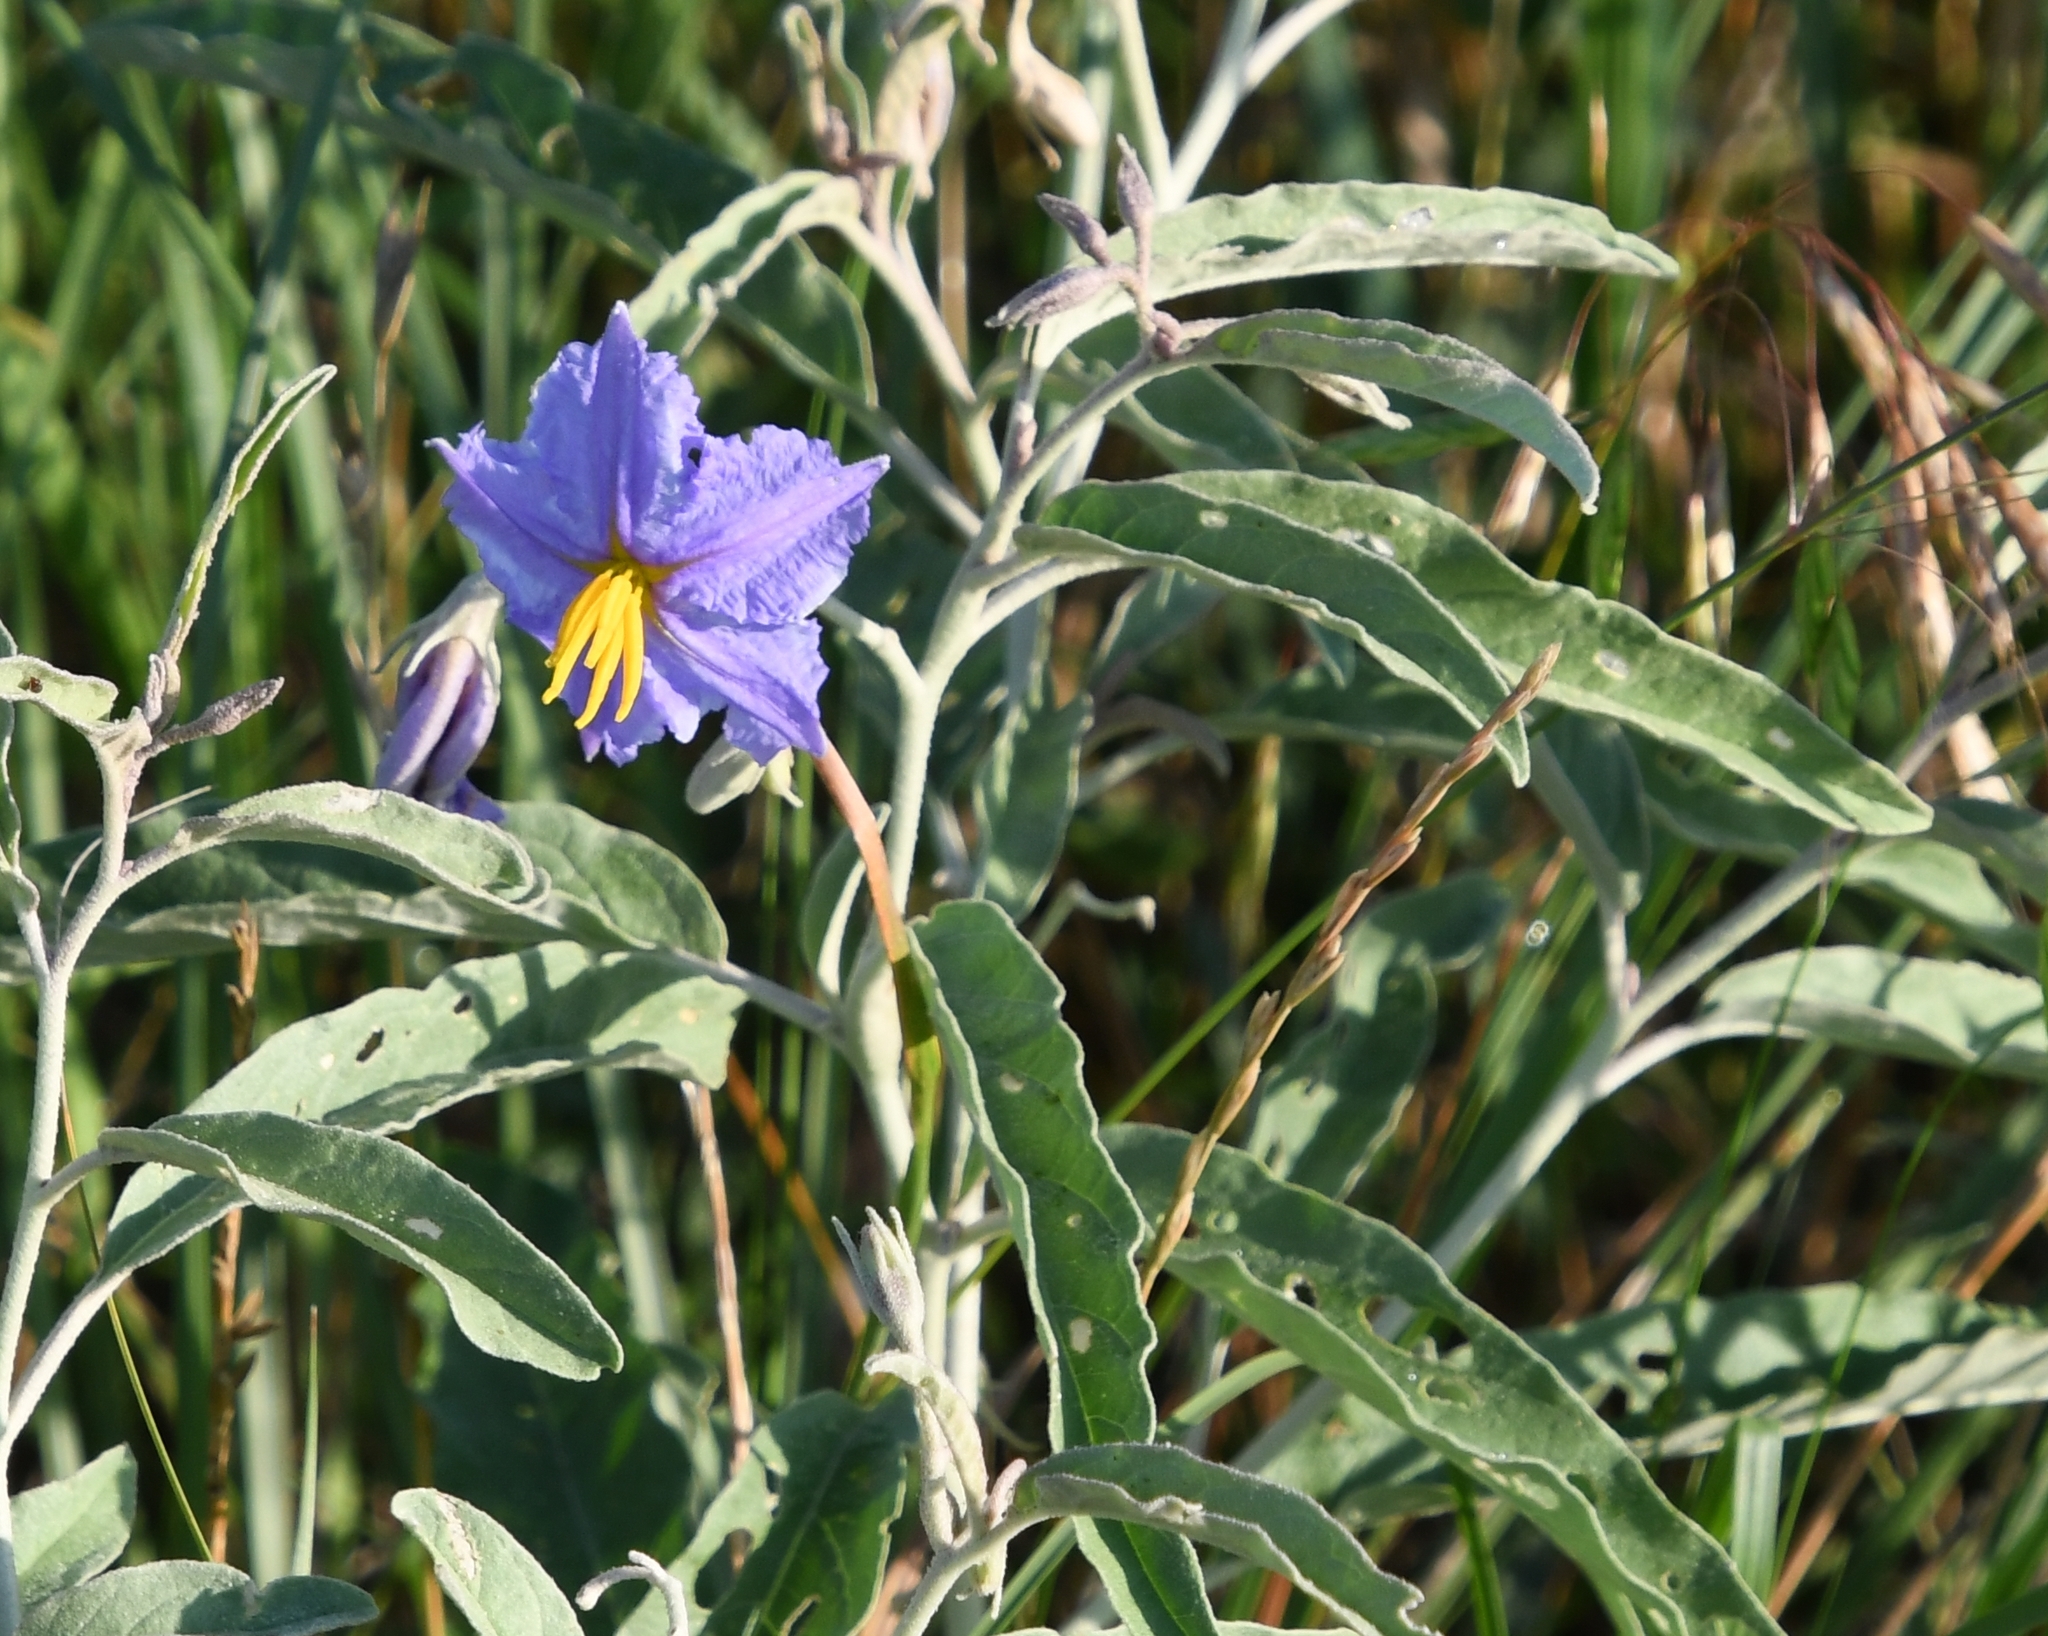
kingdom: Plantae
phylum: Tracheophyta
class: Magnoliopsida
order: Solanales
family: Solanaceae
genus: Solanum
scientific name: Solanum elaeagnifolium
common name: Silverleaf nightshade
